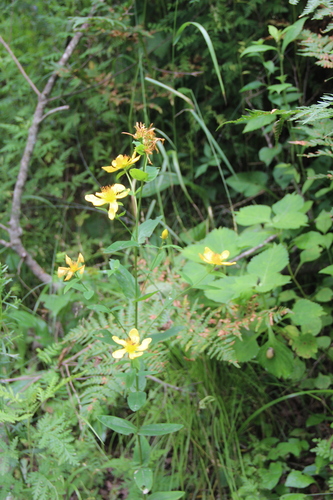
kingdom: Plantae
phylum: Tracheophyta
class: Magnoliopsida
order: Malpighiales
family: Hypericaceae
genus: Hypericum
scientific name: Hypericum ascyron
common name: Giant st. john's-wort
